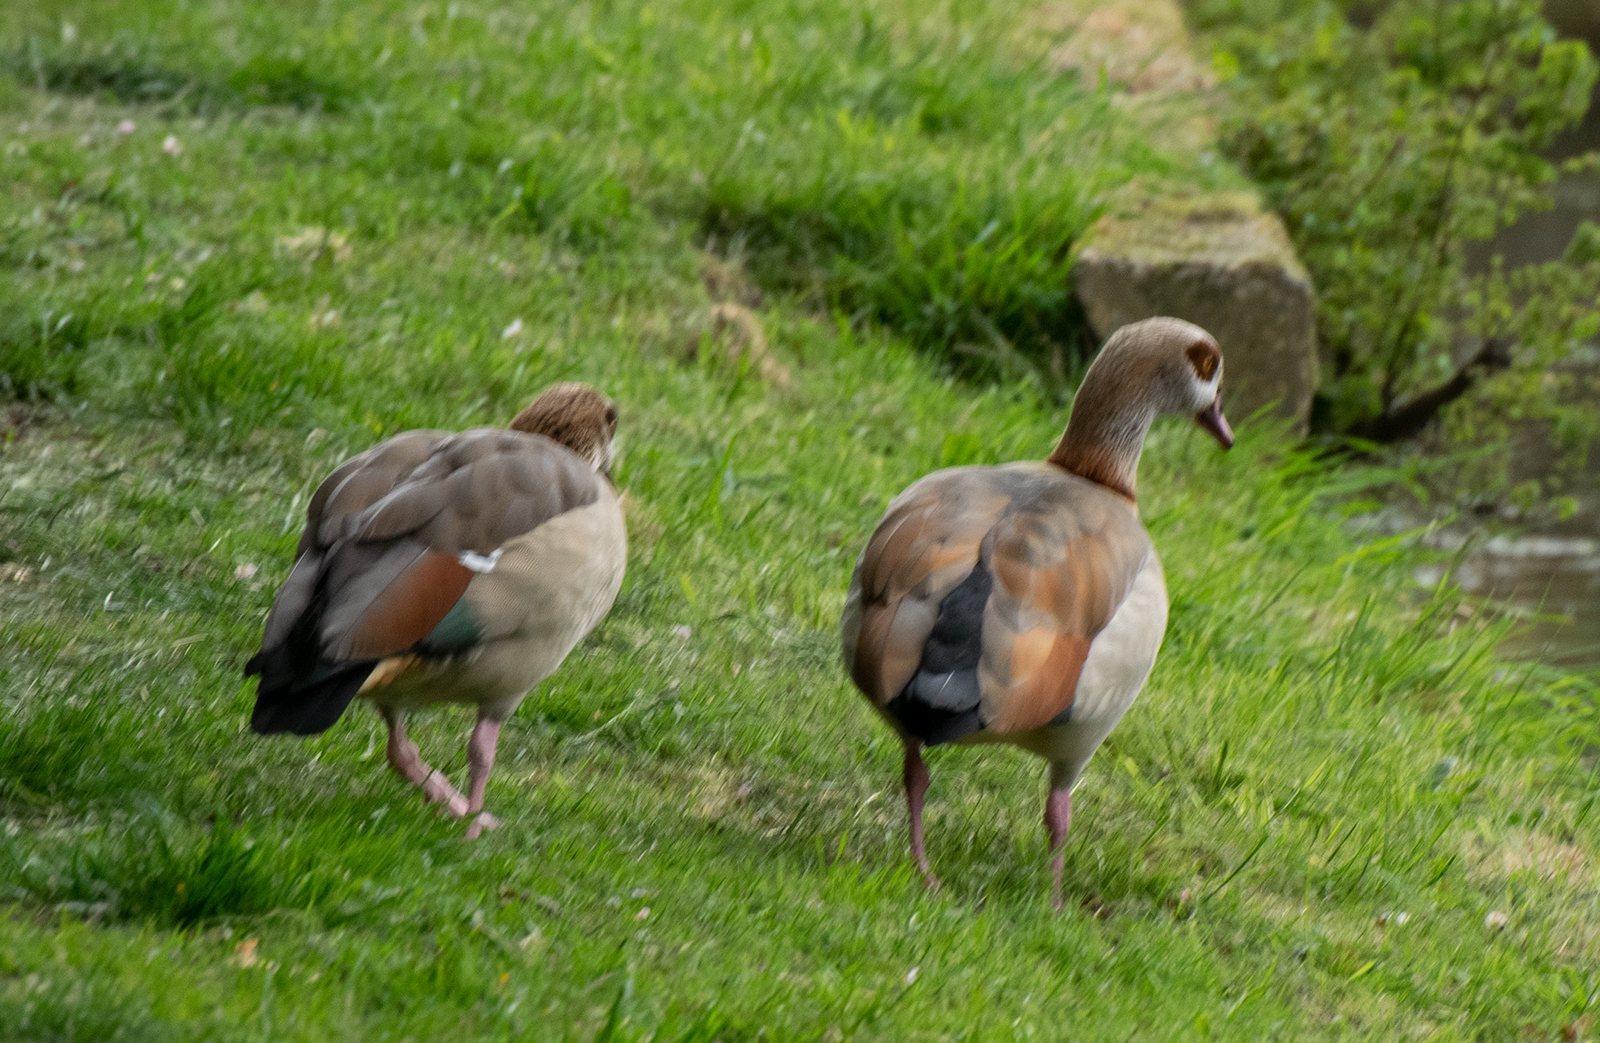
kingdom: Animalia
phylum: Chordata
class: Aves
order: Anseriformes
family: Anatidae
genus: Alopochen
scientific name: Alopochen aegyptiaca
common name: Egyptian goose
